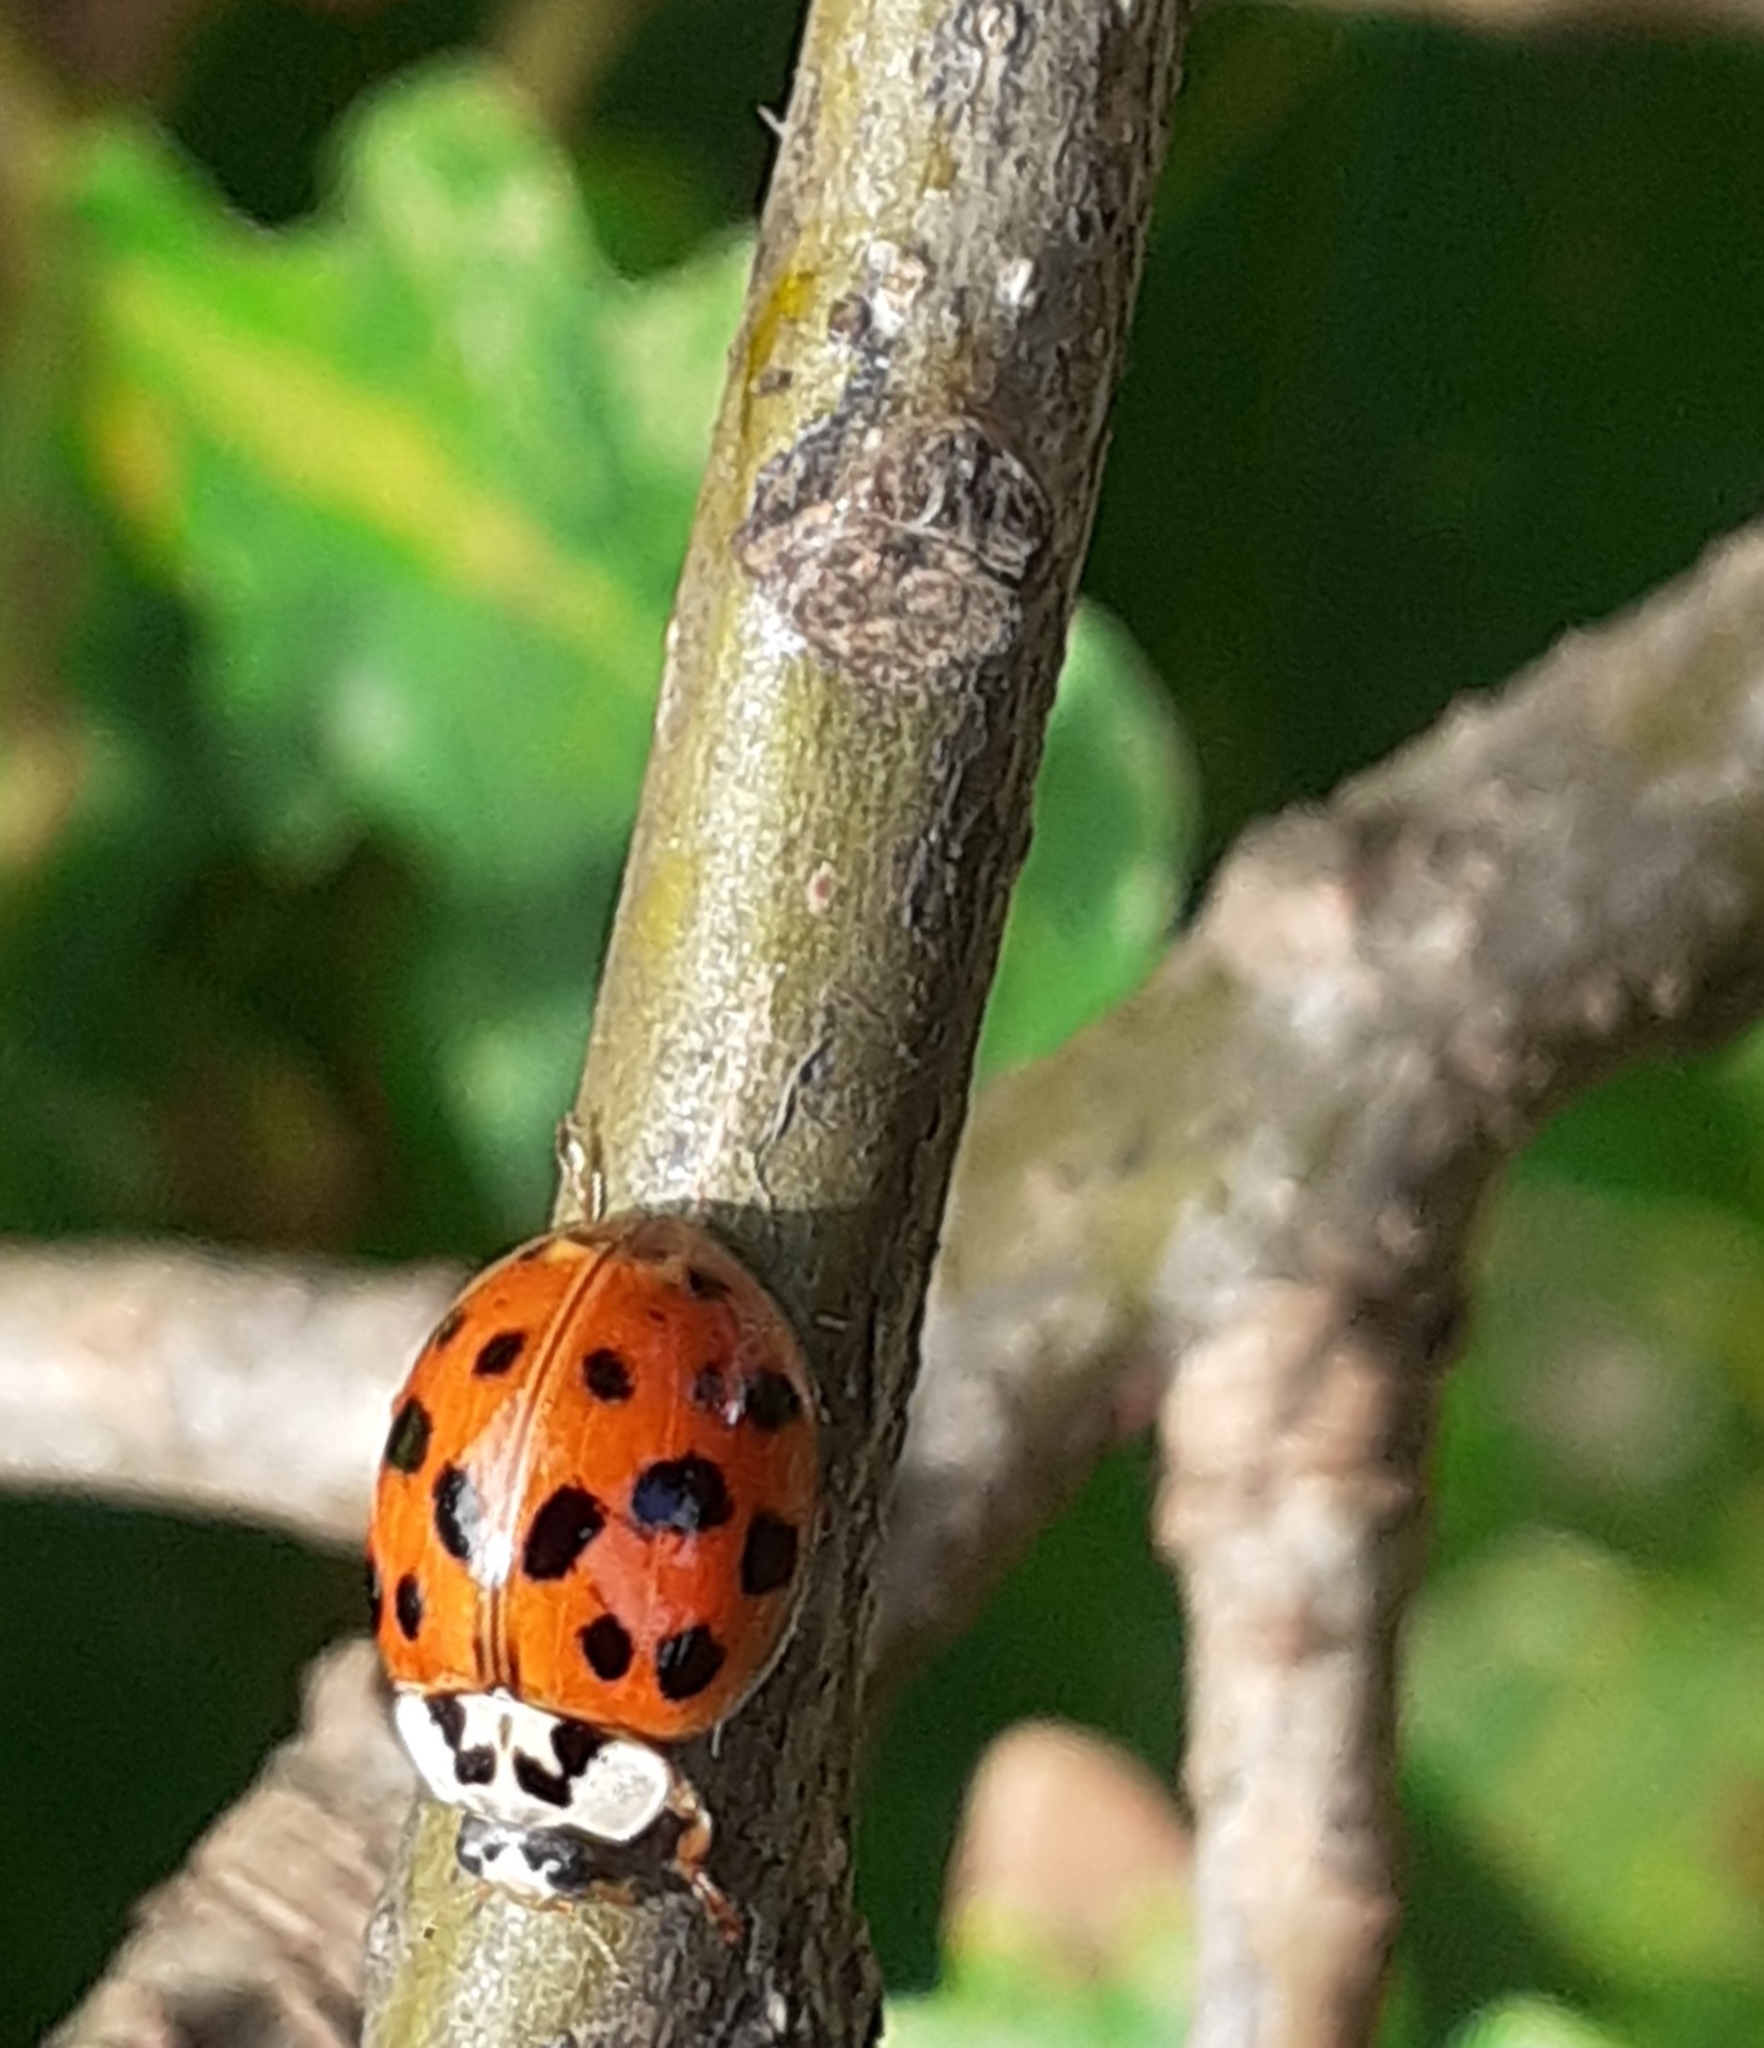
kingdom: Animalia
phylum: Arthropoda
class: Insecta
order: Coleoptera
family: Coccinellidae
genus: Harmonia
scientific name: Harmonia axyridis
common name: Harlequin ladybird
